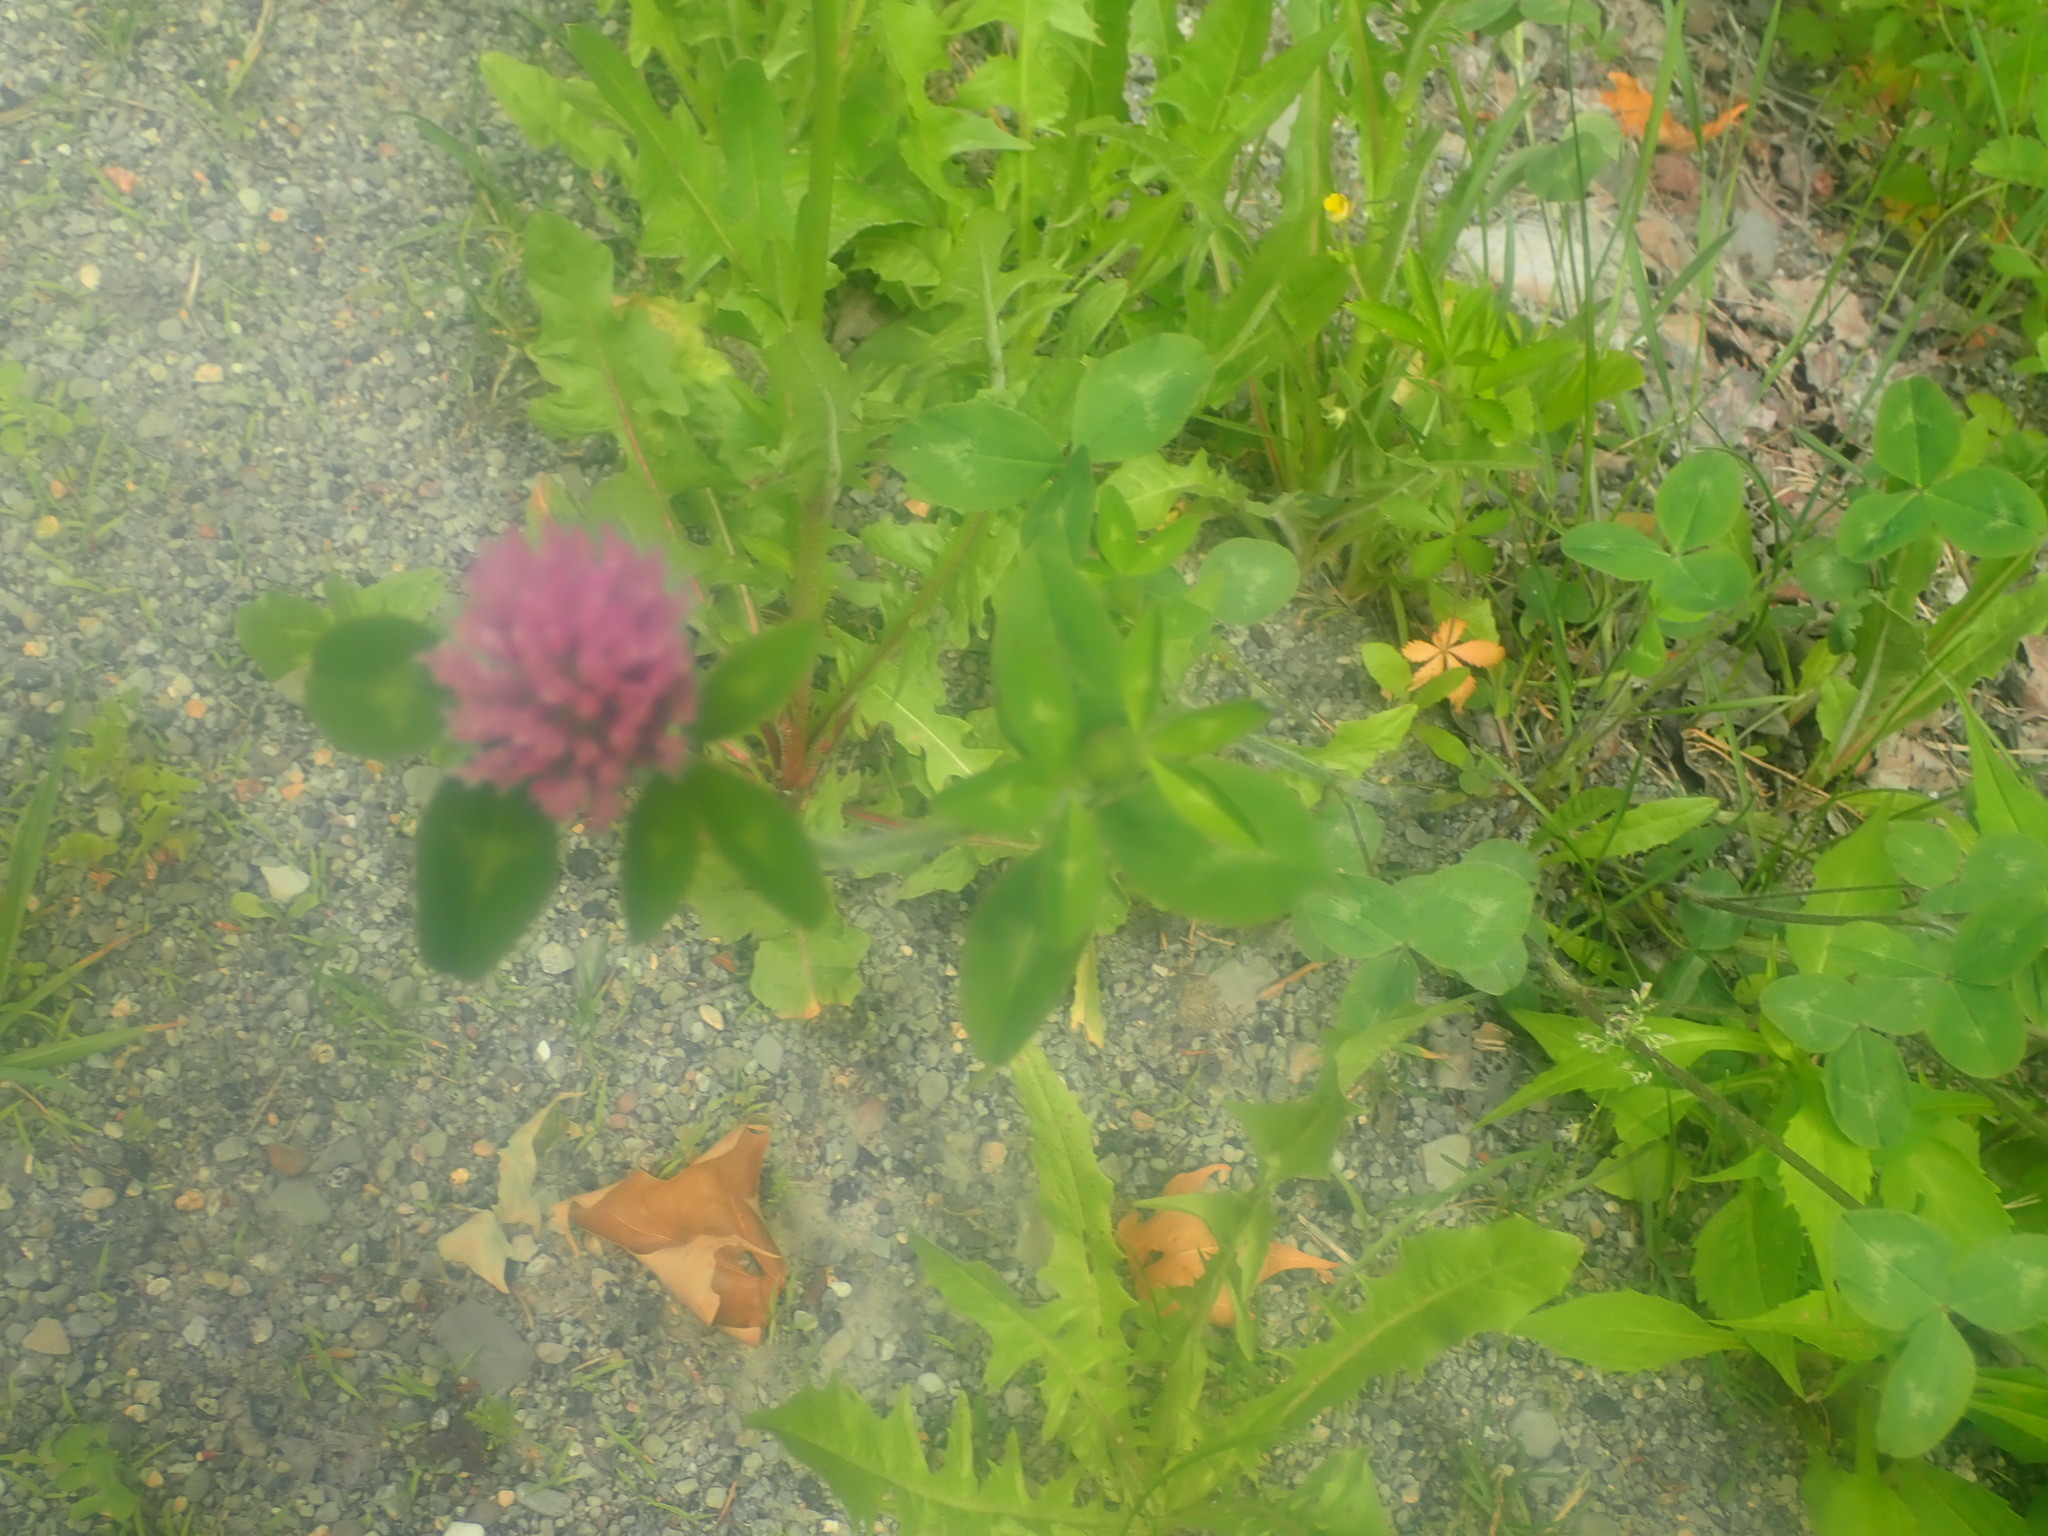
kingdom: Plantae
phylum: Tracheophyta
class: Magnoliopsida
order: Fabales
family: Fabaceae
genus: Trifolium
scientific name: Trifolium pratense
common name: Red clover
